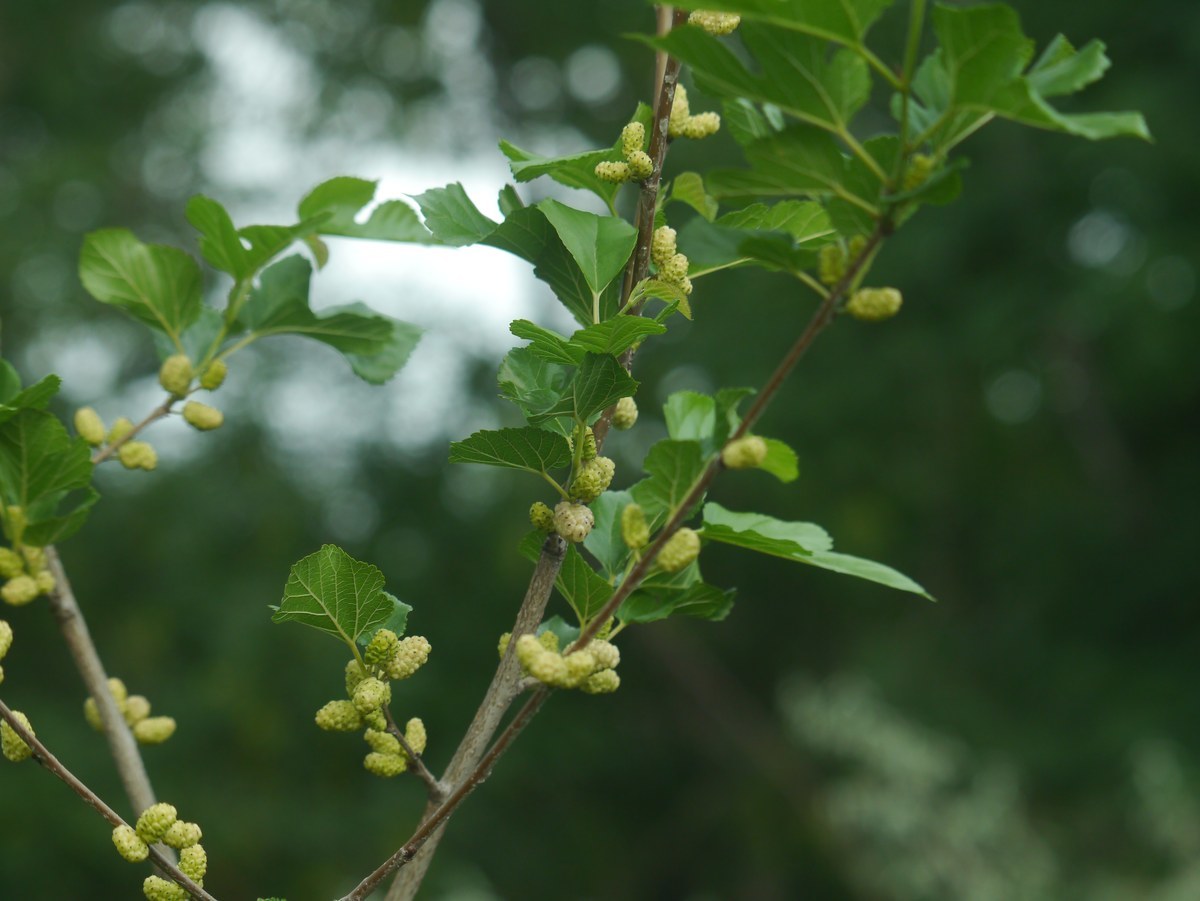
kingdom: Plantae
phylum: Tracheophyta
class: Magnoliopsida
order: Rosales
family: Moraceae
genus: Morus
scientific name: Morus alba
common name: White mulberry
